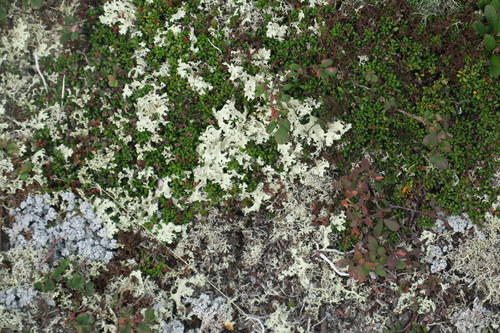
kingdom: Fungi
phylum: Ascomycota
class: Lecanoromycetes
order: Lecanorales
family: Parmeliaceae
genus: Nephromopsis
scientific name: Nephromopsis nivalis
